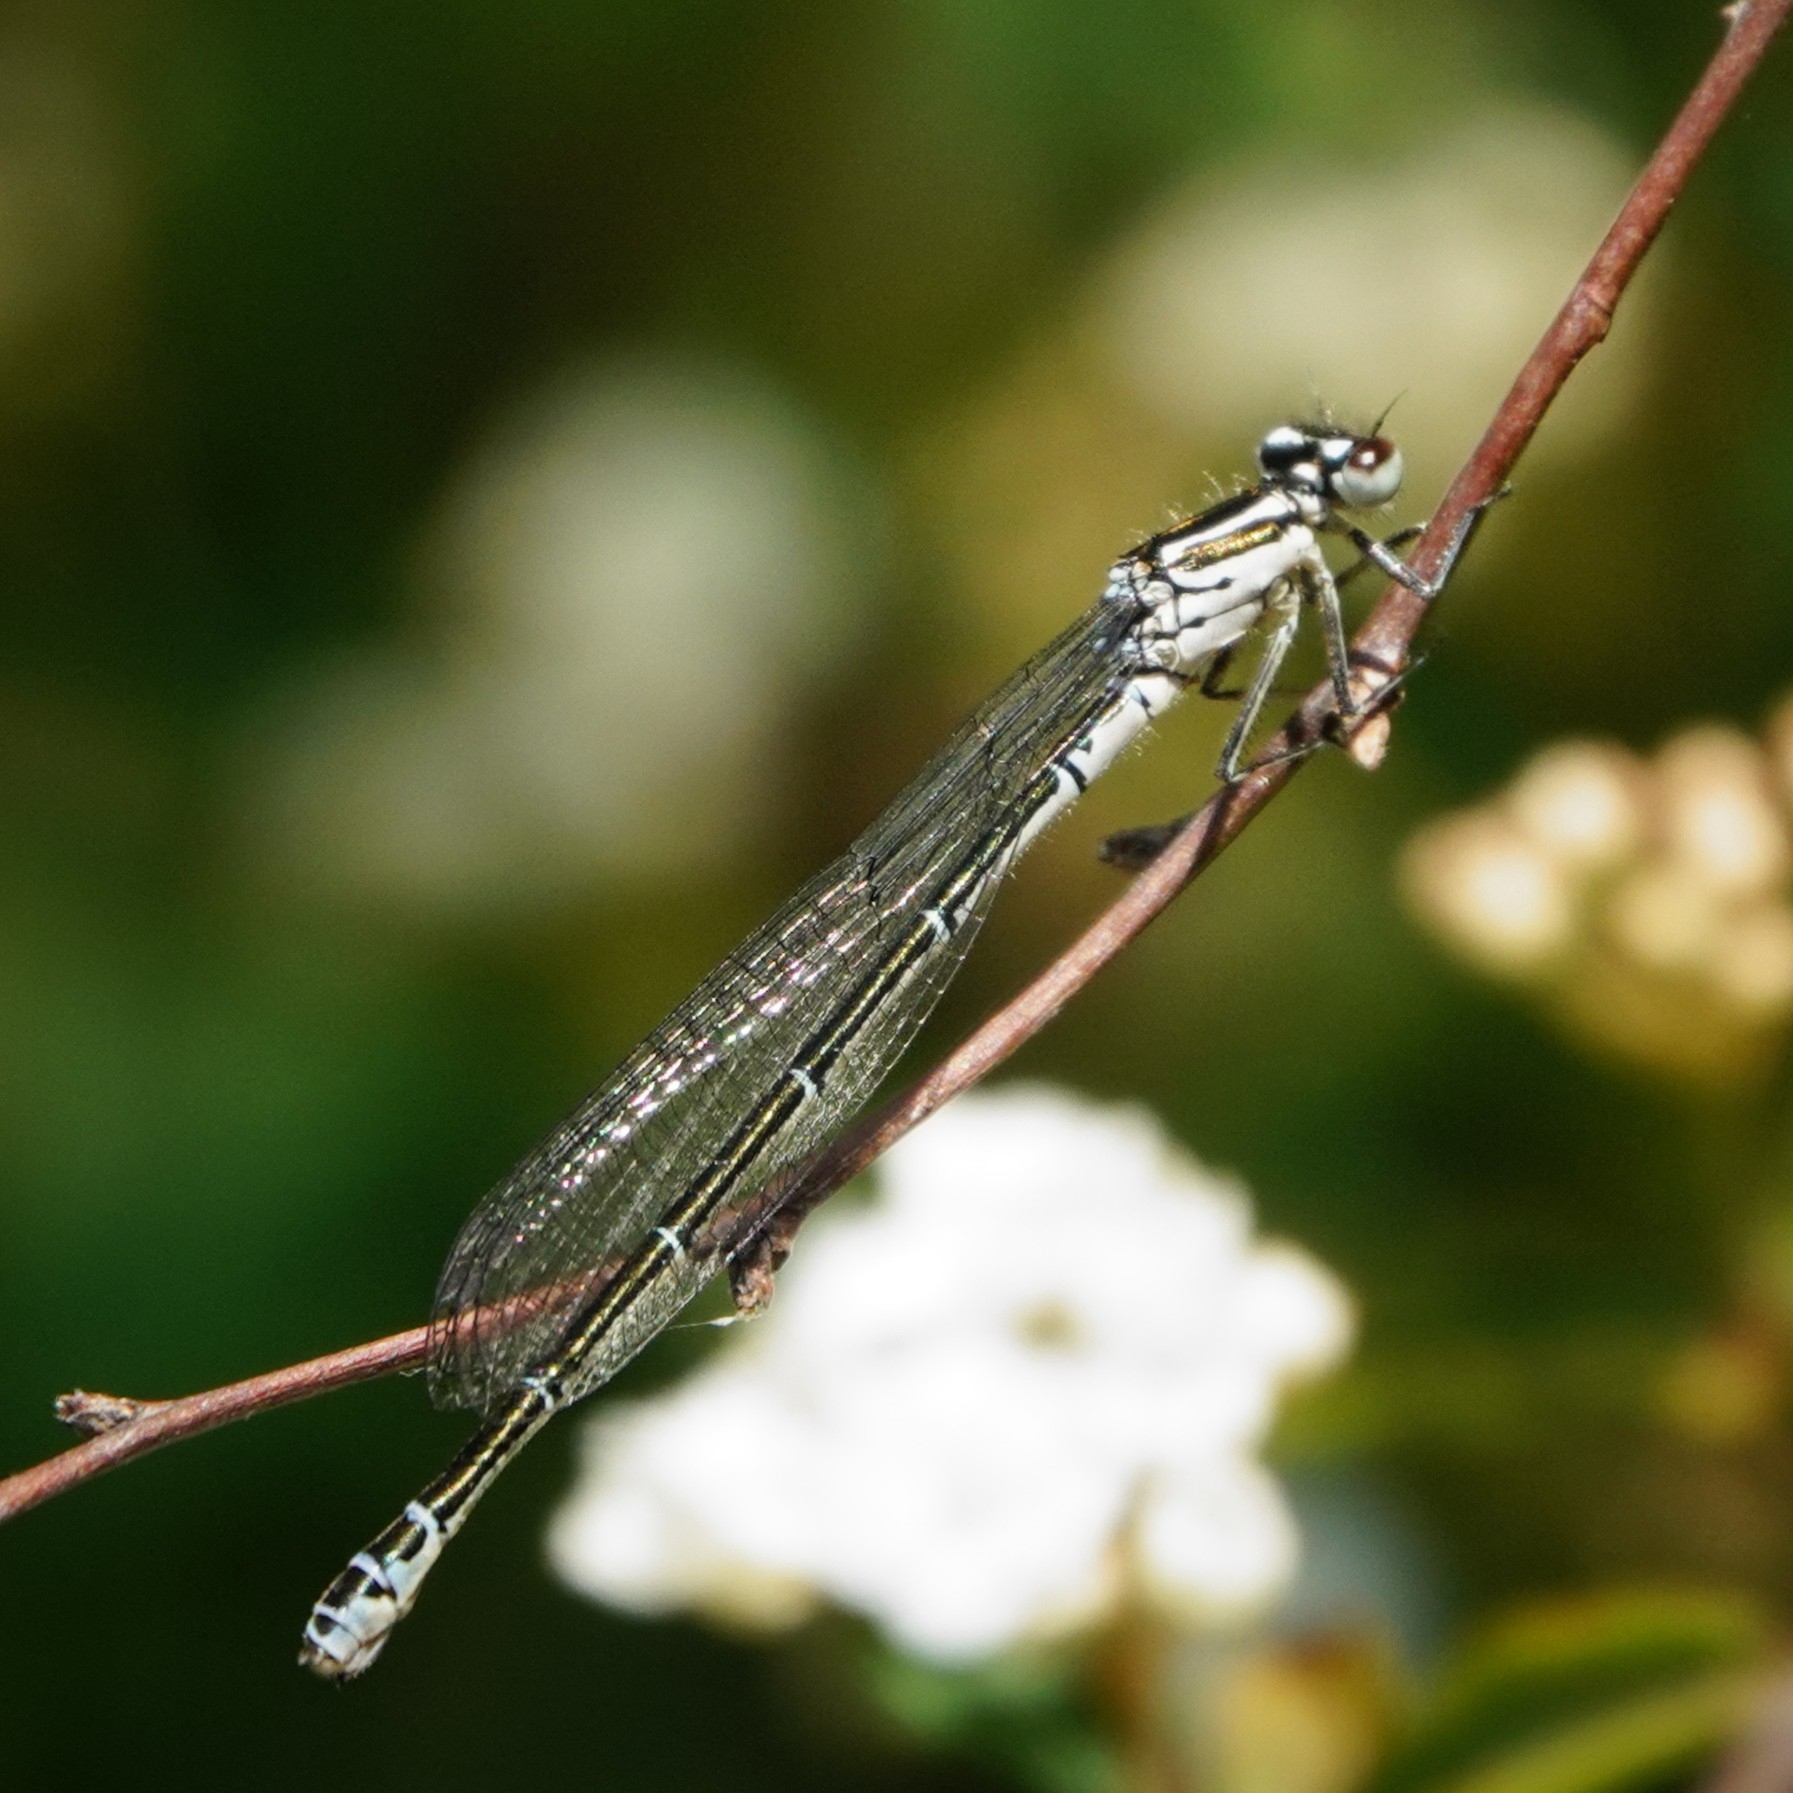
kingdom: Animalia
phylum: Arthropoda
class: Insecta
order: Odonata
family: Coenagrionidae
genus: Coenagrion
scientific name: Coenagrion puella
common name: Azure damselfly
